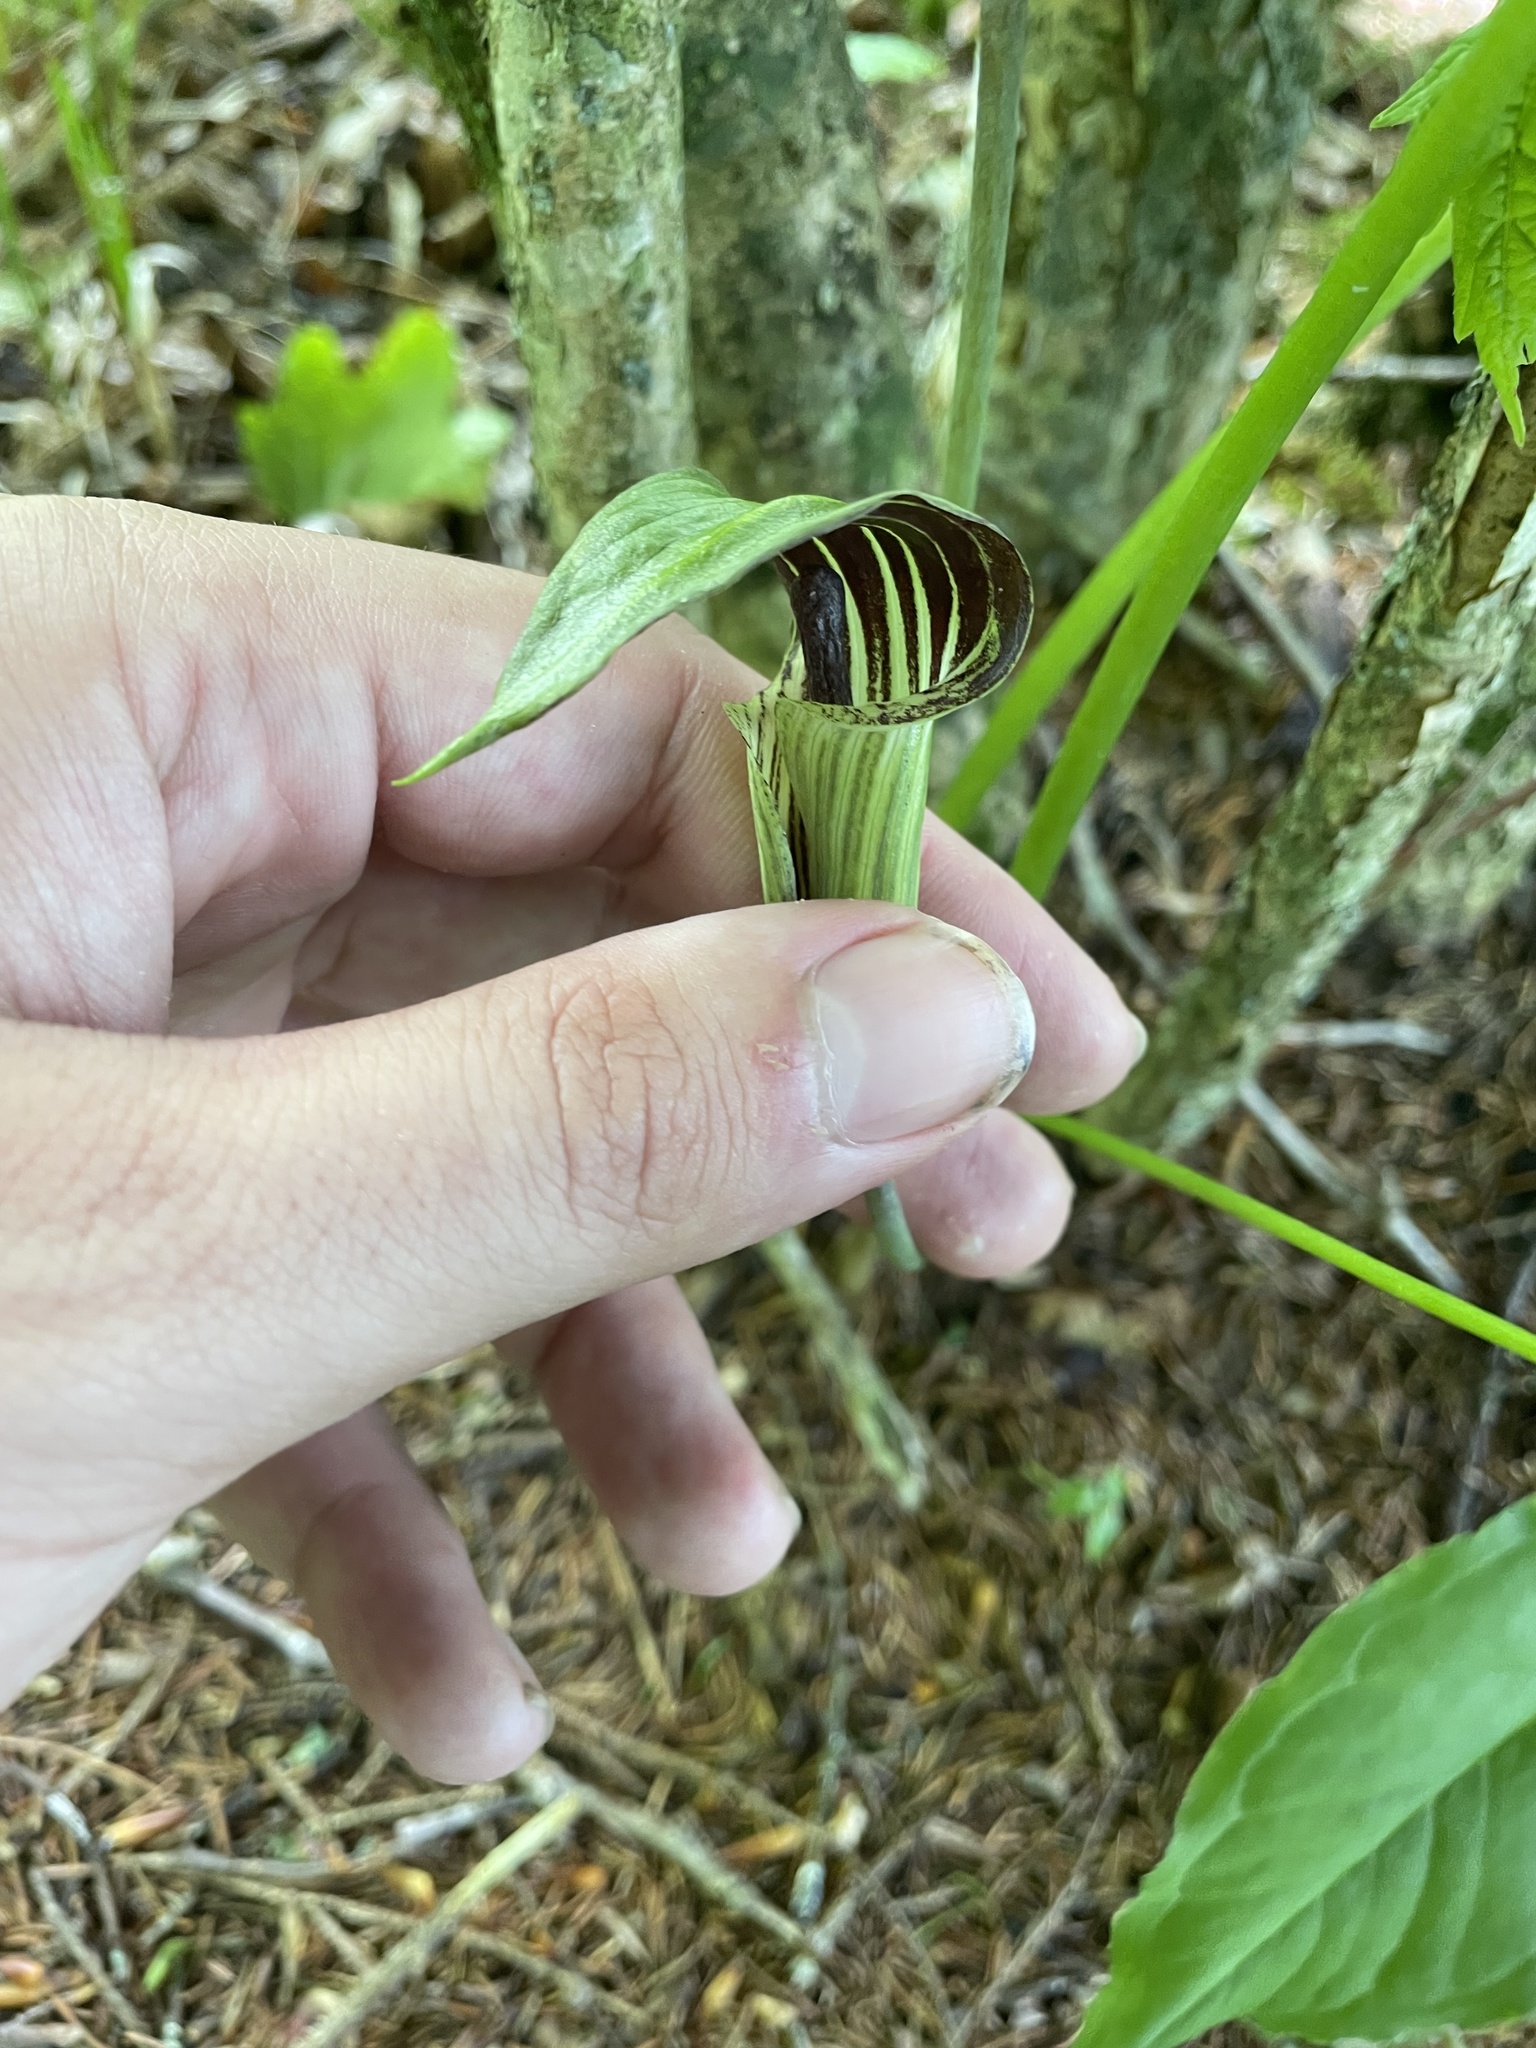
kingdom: Plantae
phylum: Tracheophyta
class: Liliopsida
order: Alismatales
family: Araceae
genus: Arisaema
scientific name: Arisaema quinatum
